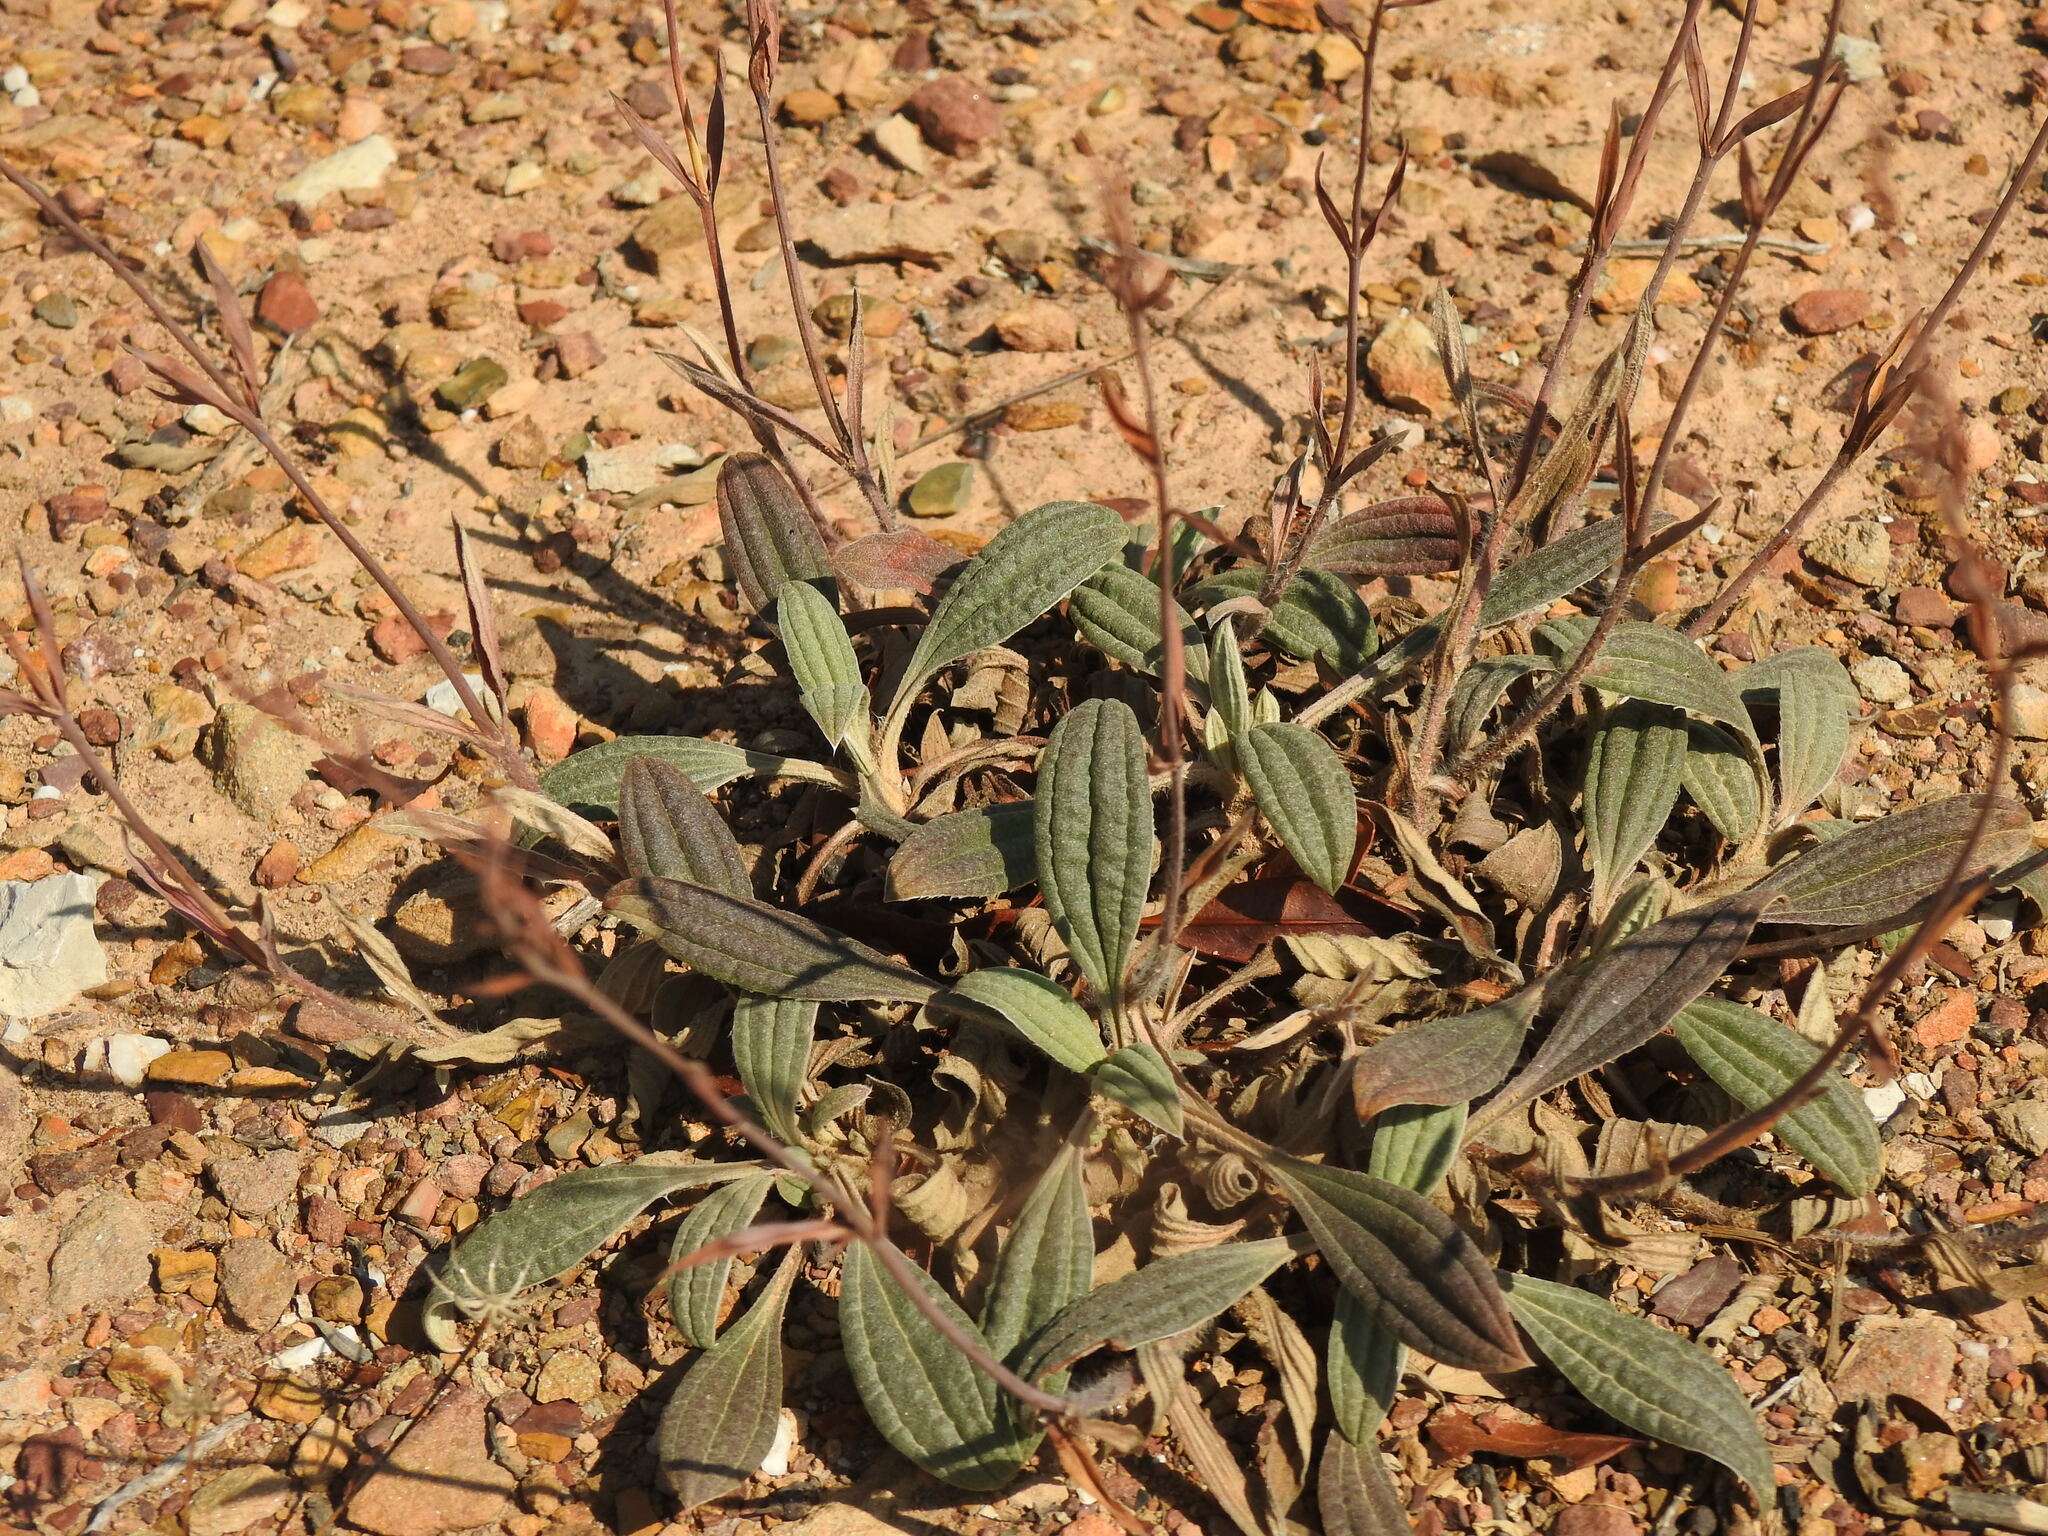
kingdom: Plantae
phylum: Tracheophyta
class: Magnoliopsida
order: Malvales
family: Cistaceae
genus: Tuberaria
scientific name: Tuberaria lignosa
